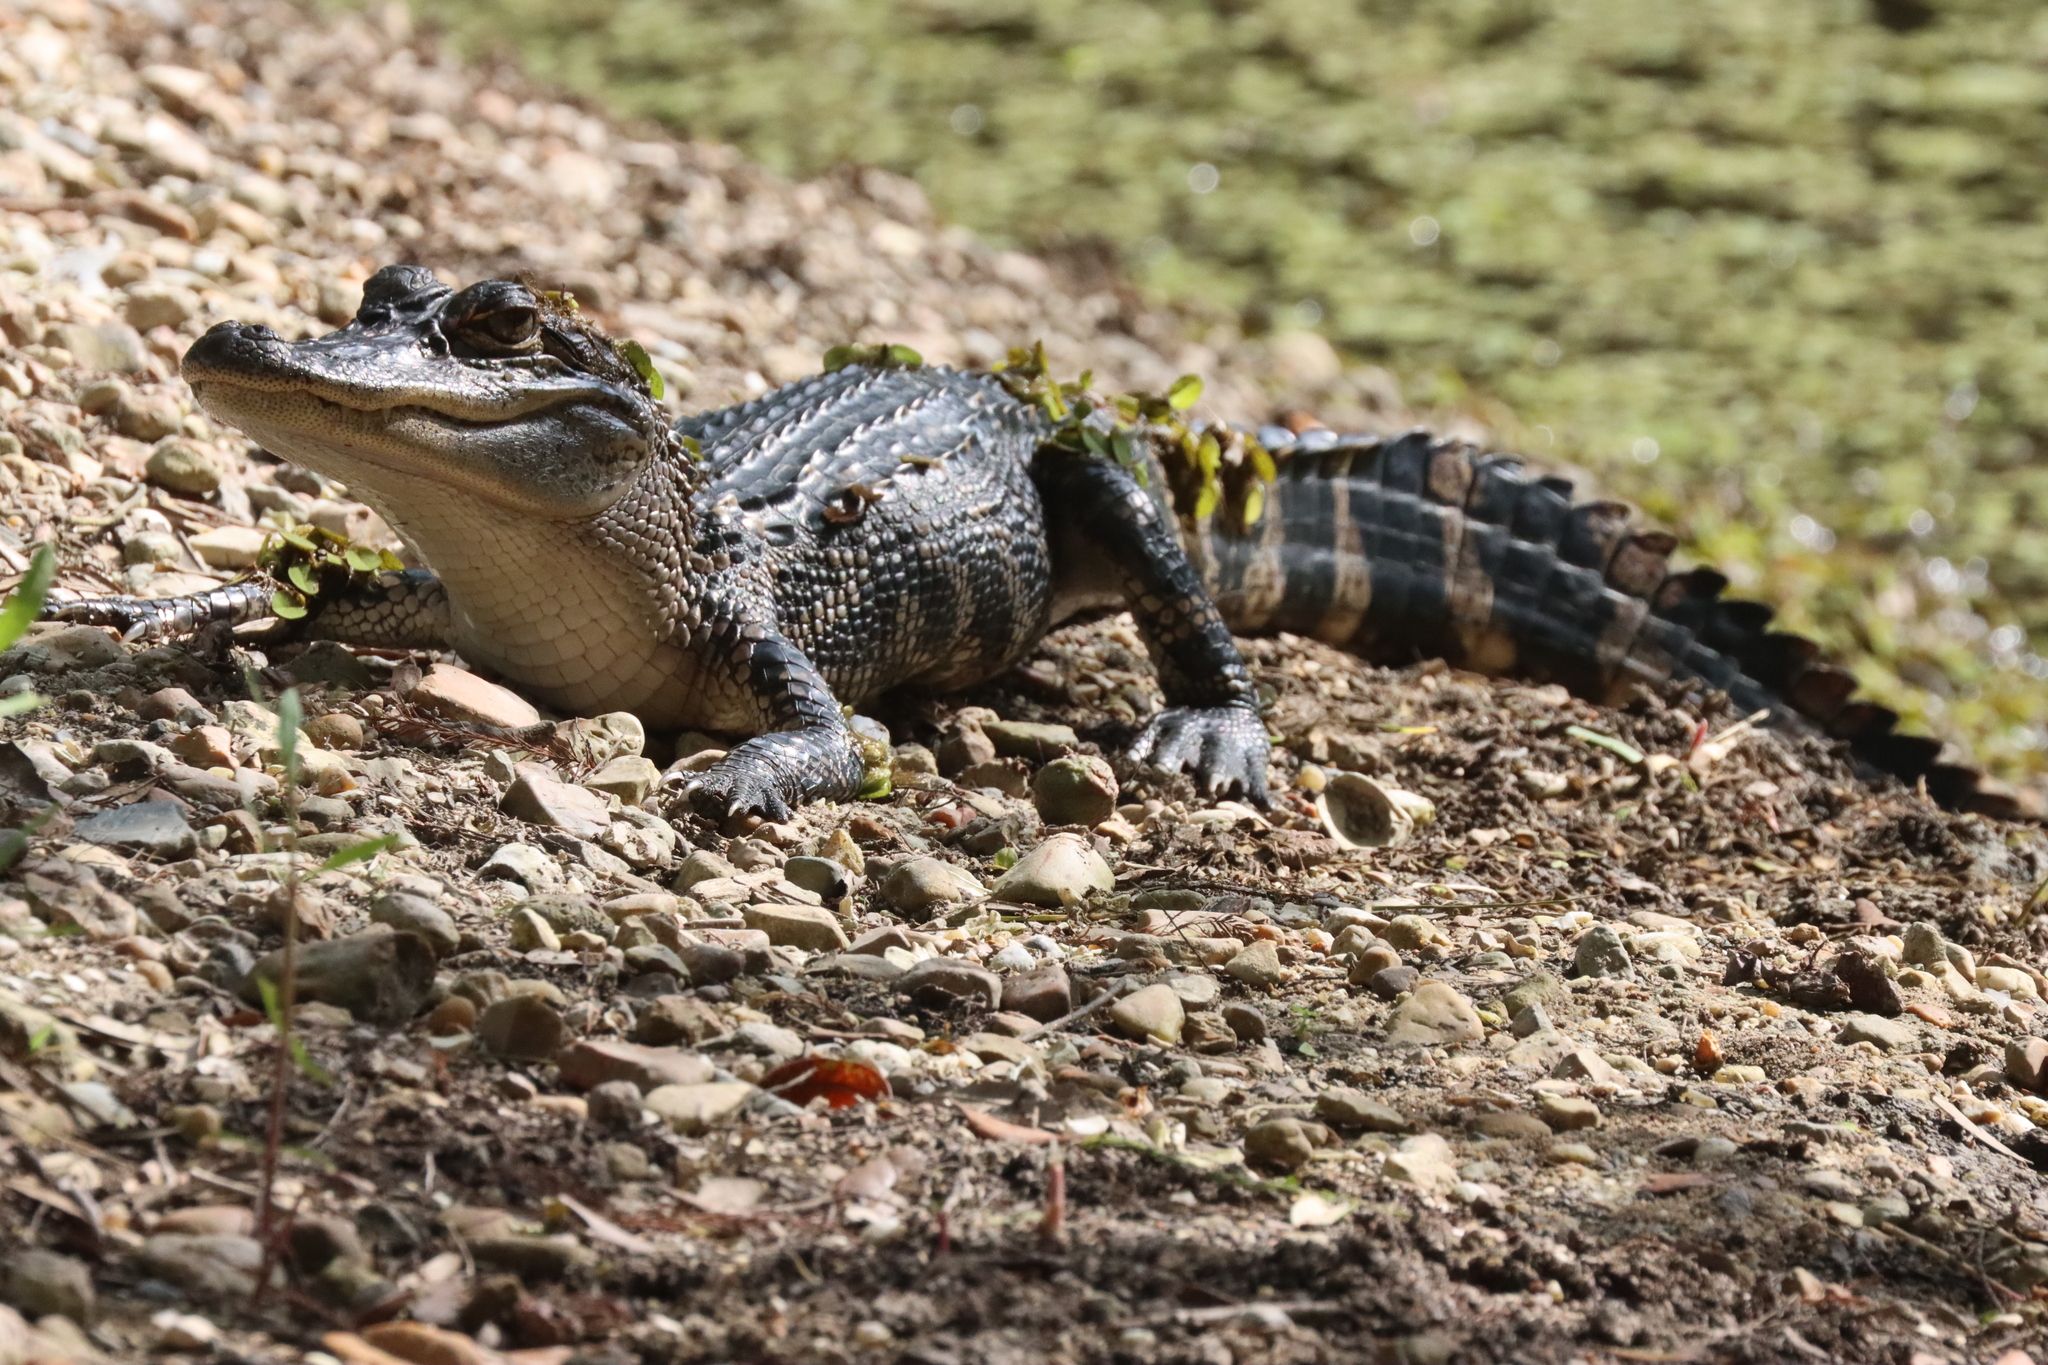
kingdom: Animalia
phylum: Chordata
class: Crocodylia
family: Alligatoridae
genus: Alligator
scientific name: Alligator mississippiensis
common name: American alligator
